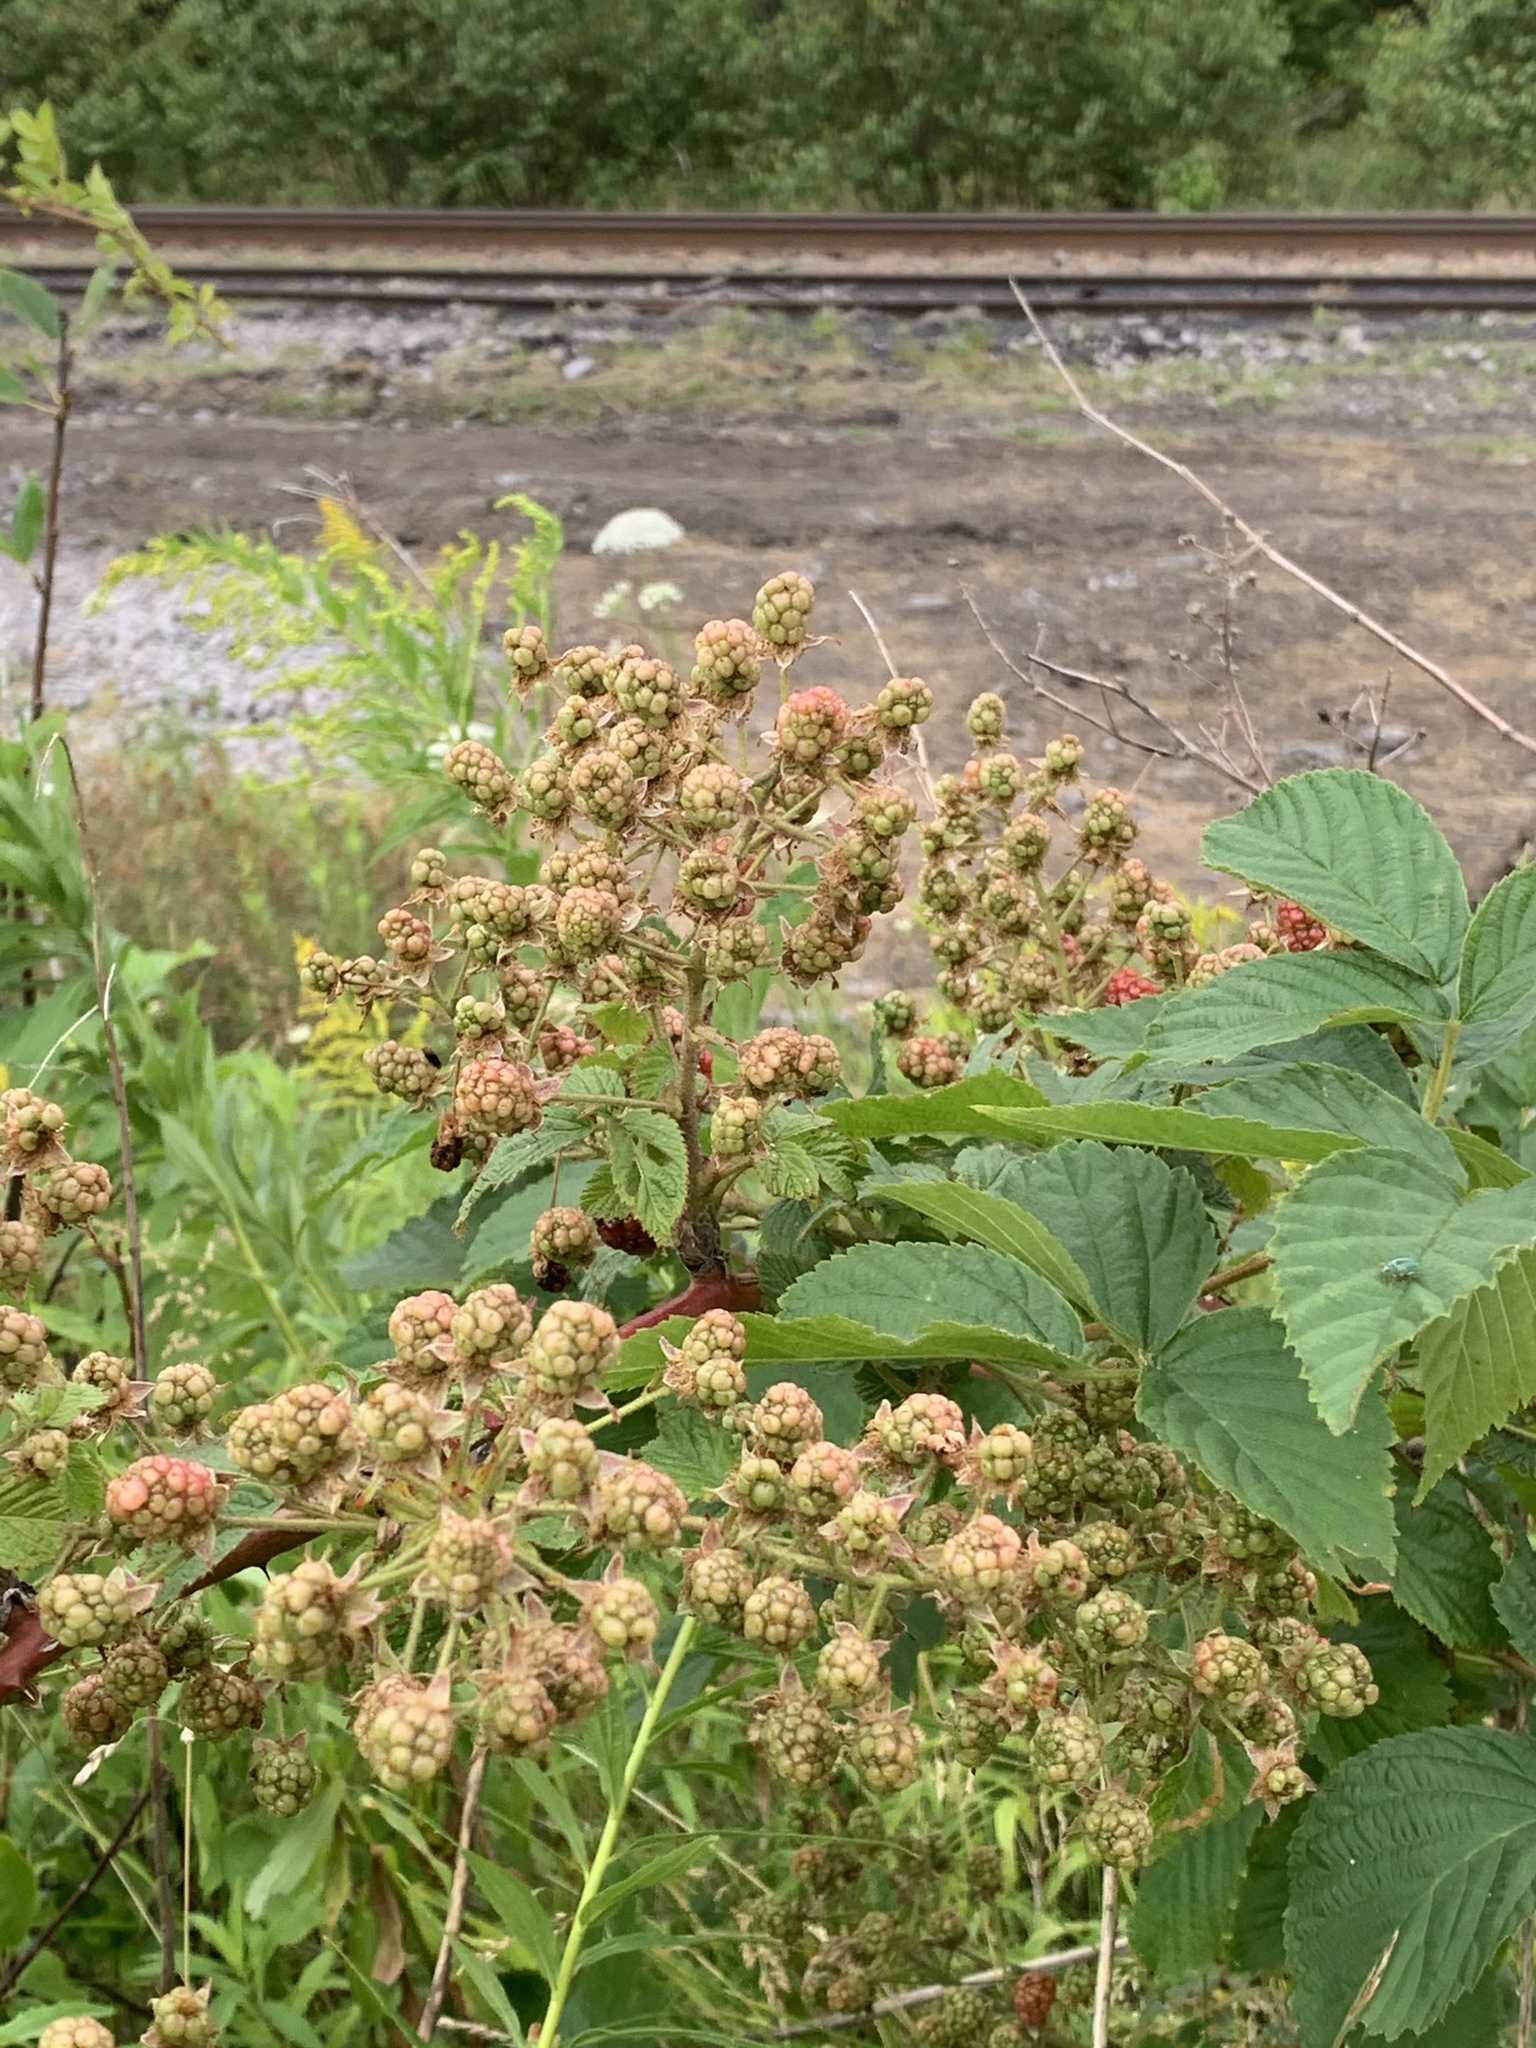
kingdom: Plantae
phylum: Tracheophyta
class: Magnoliopsida
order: Rosales
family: Rosaceae
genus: Rubus
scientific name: Rubus allegheniensis
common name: Allegheny blackberry
